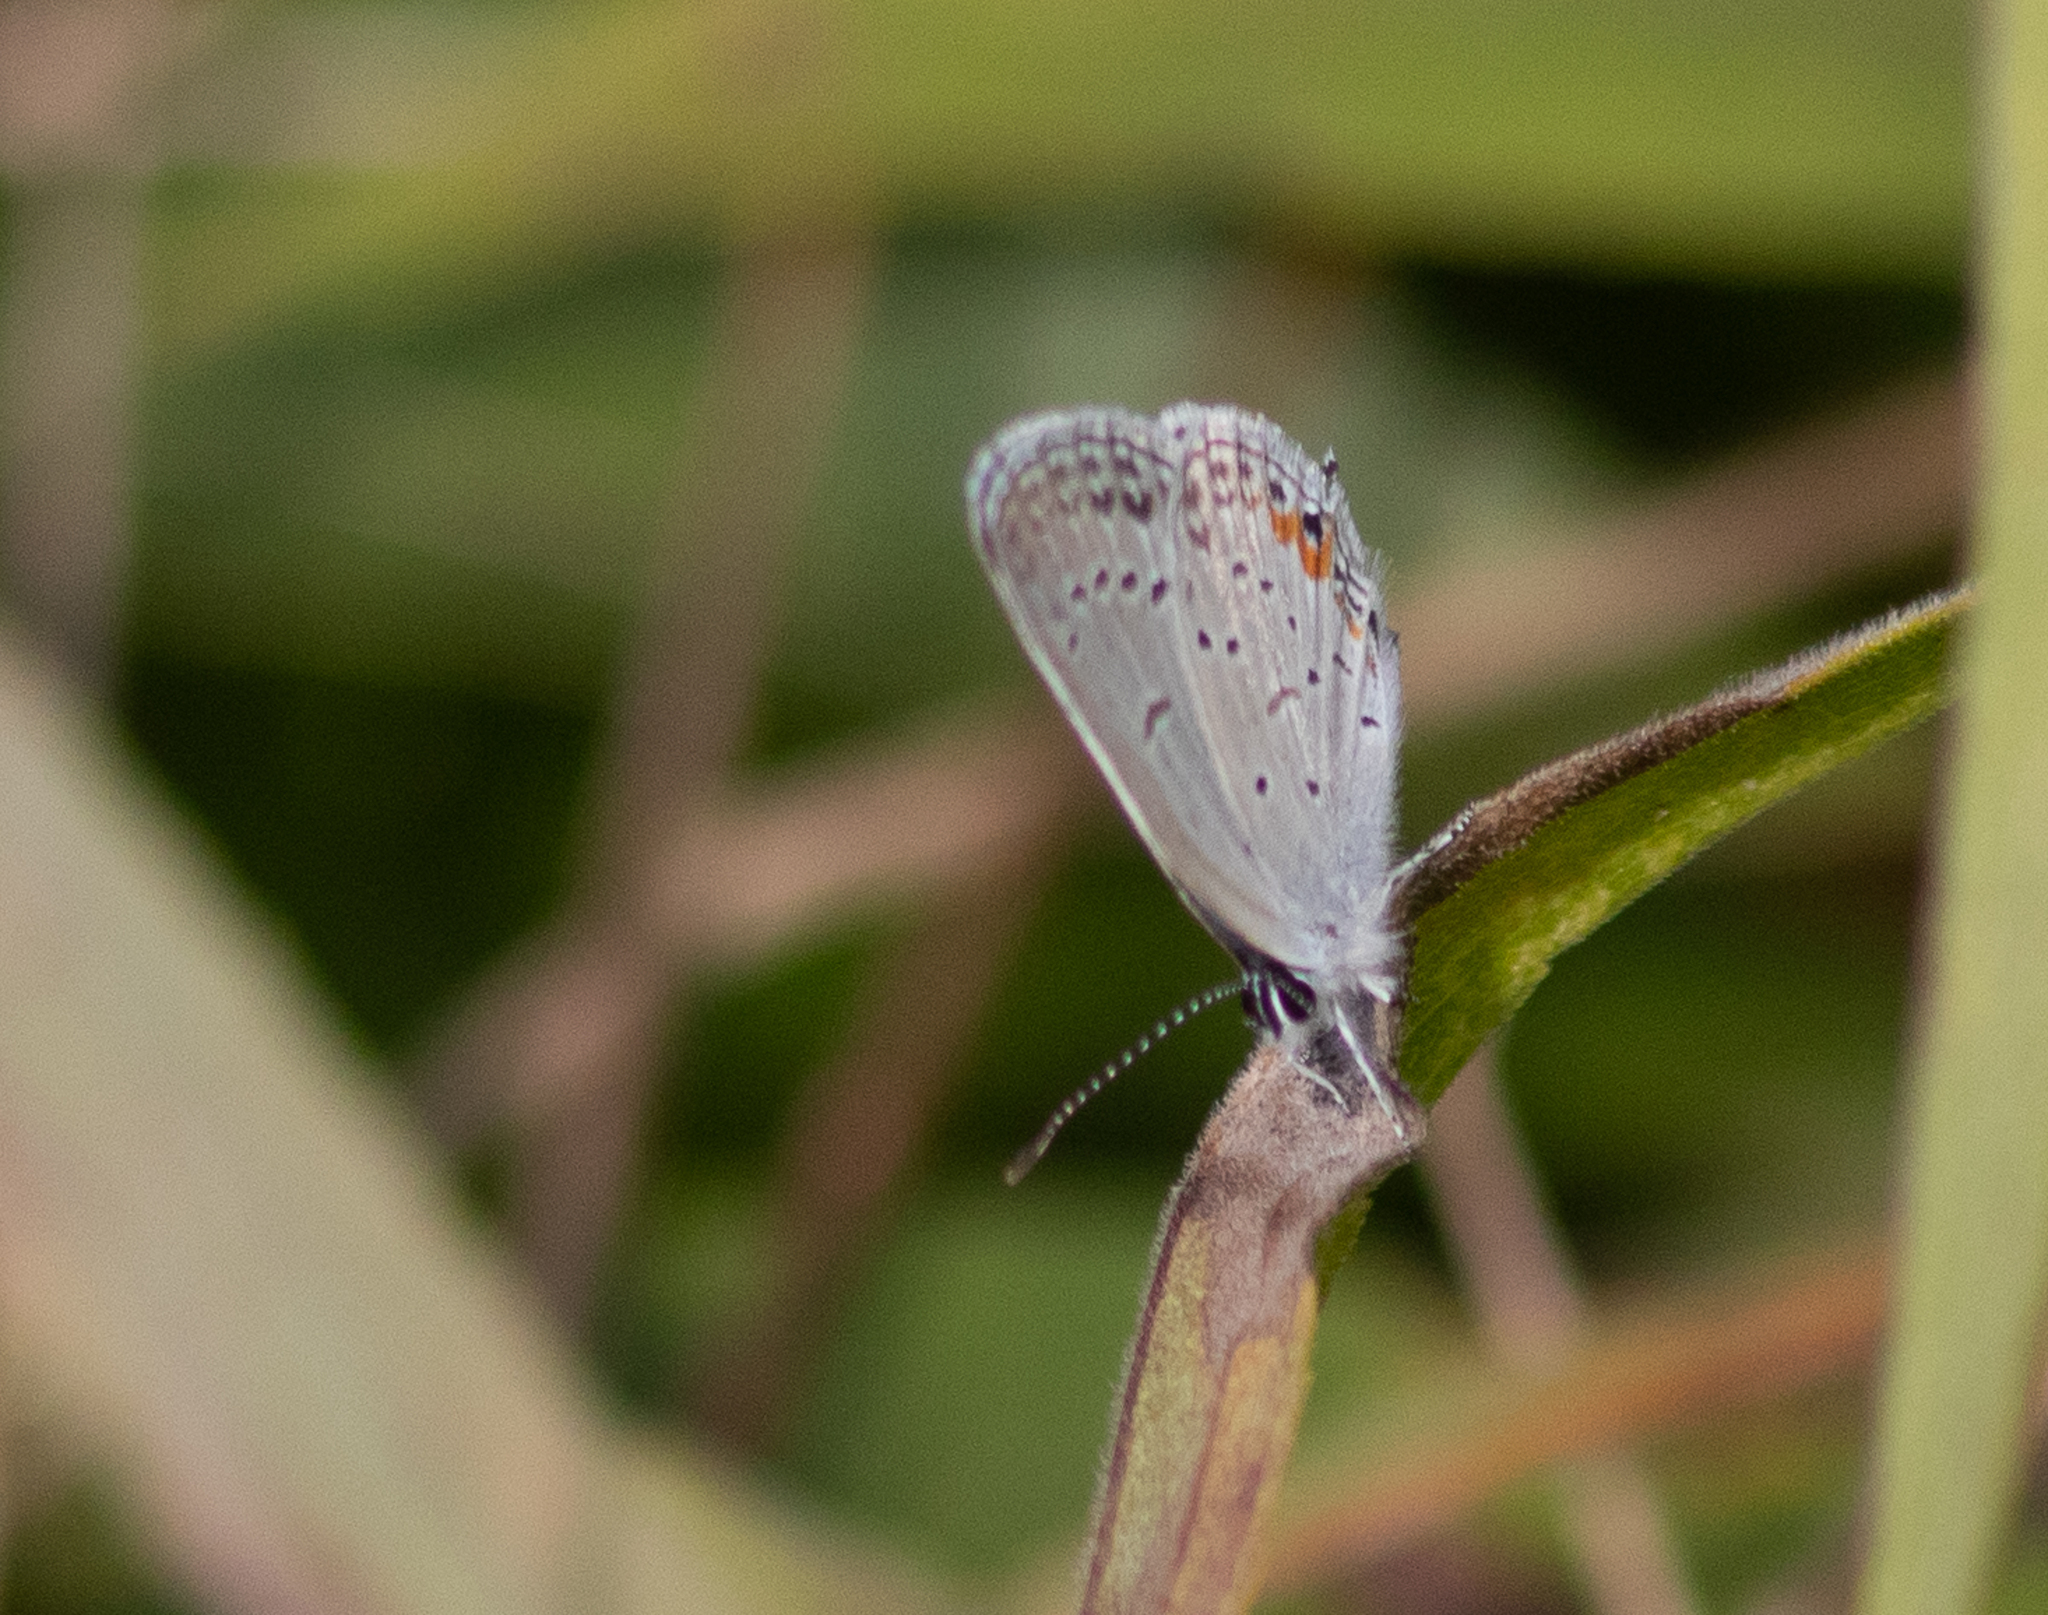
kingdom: Animalia
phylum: Arthropoda
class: Insecta
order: Lepidoptera
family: Lycaenidae
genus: Elkalyce
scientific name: Elkalyce comyntas
